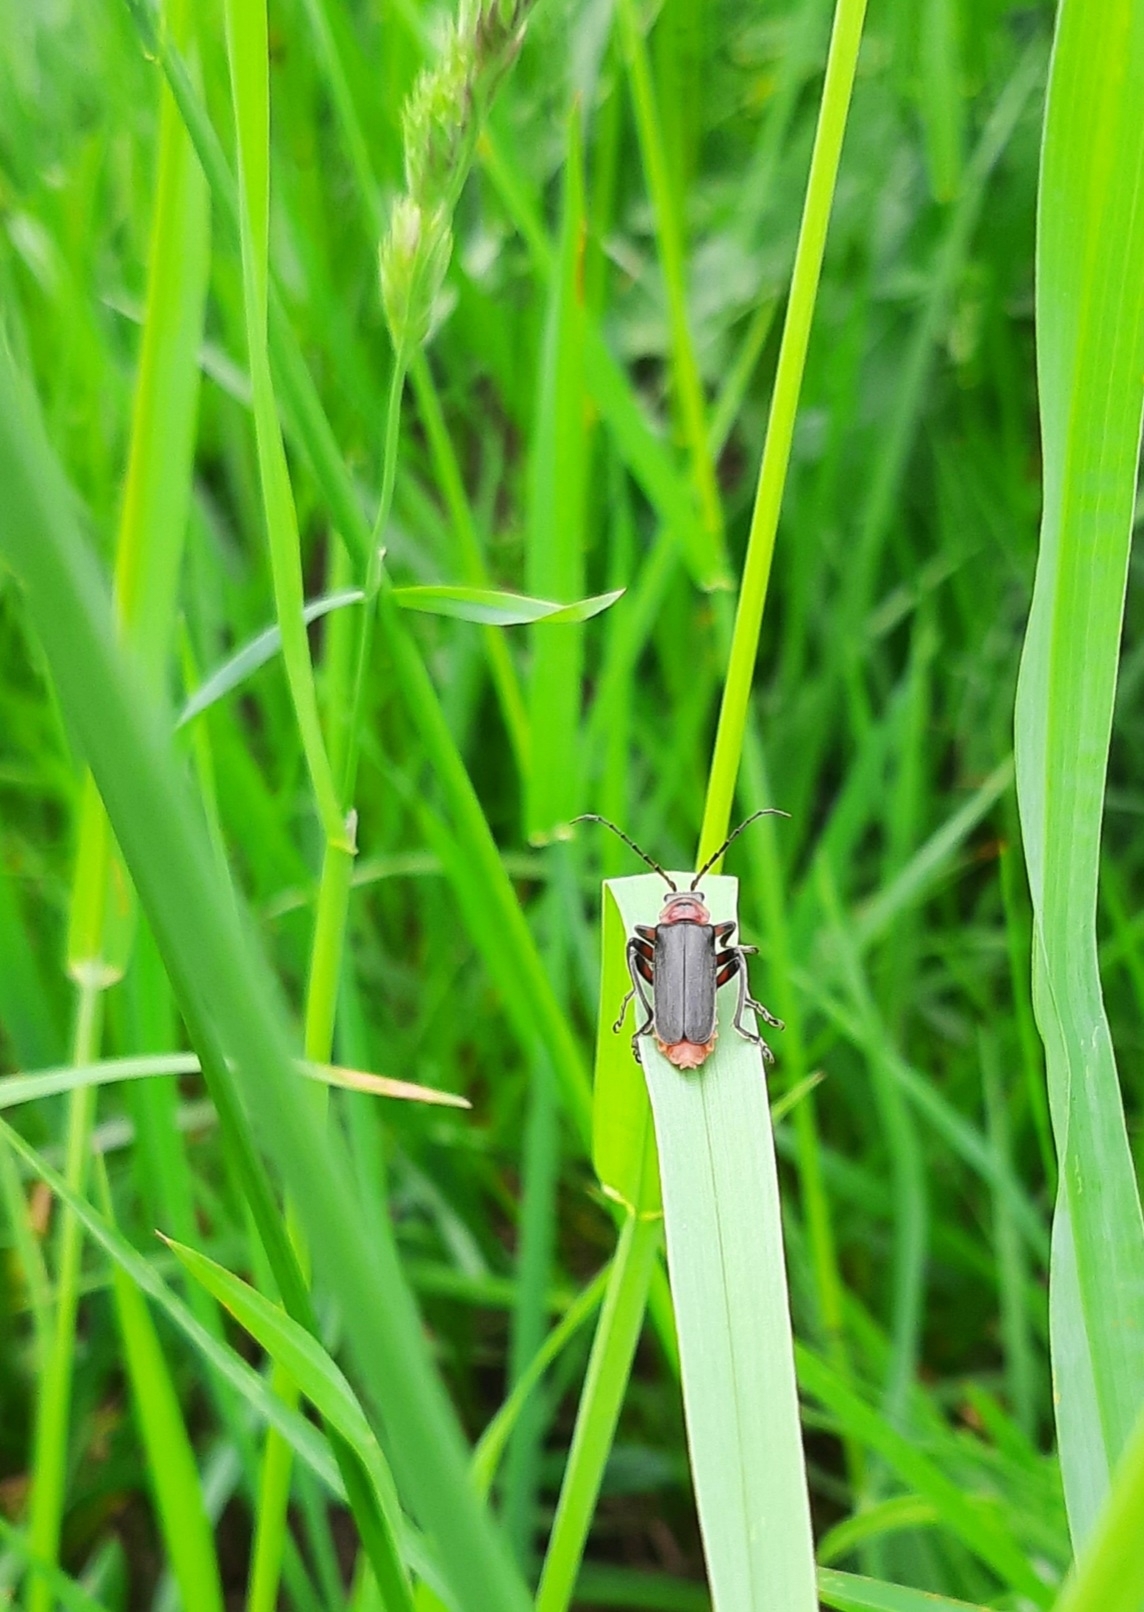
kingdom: Animalia
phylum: Arthropoda
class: Insecta
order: Coleoptera
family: Cantharidae
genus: Cantharis
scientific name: Cantharis rustica
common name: Soldier beetle
